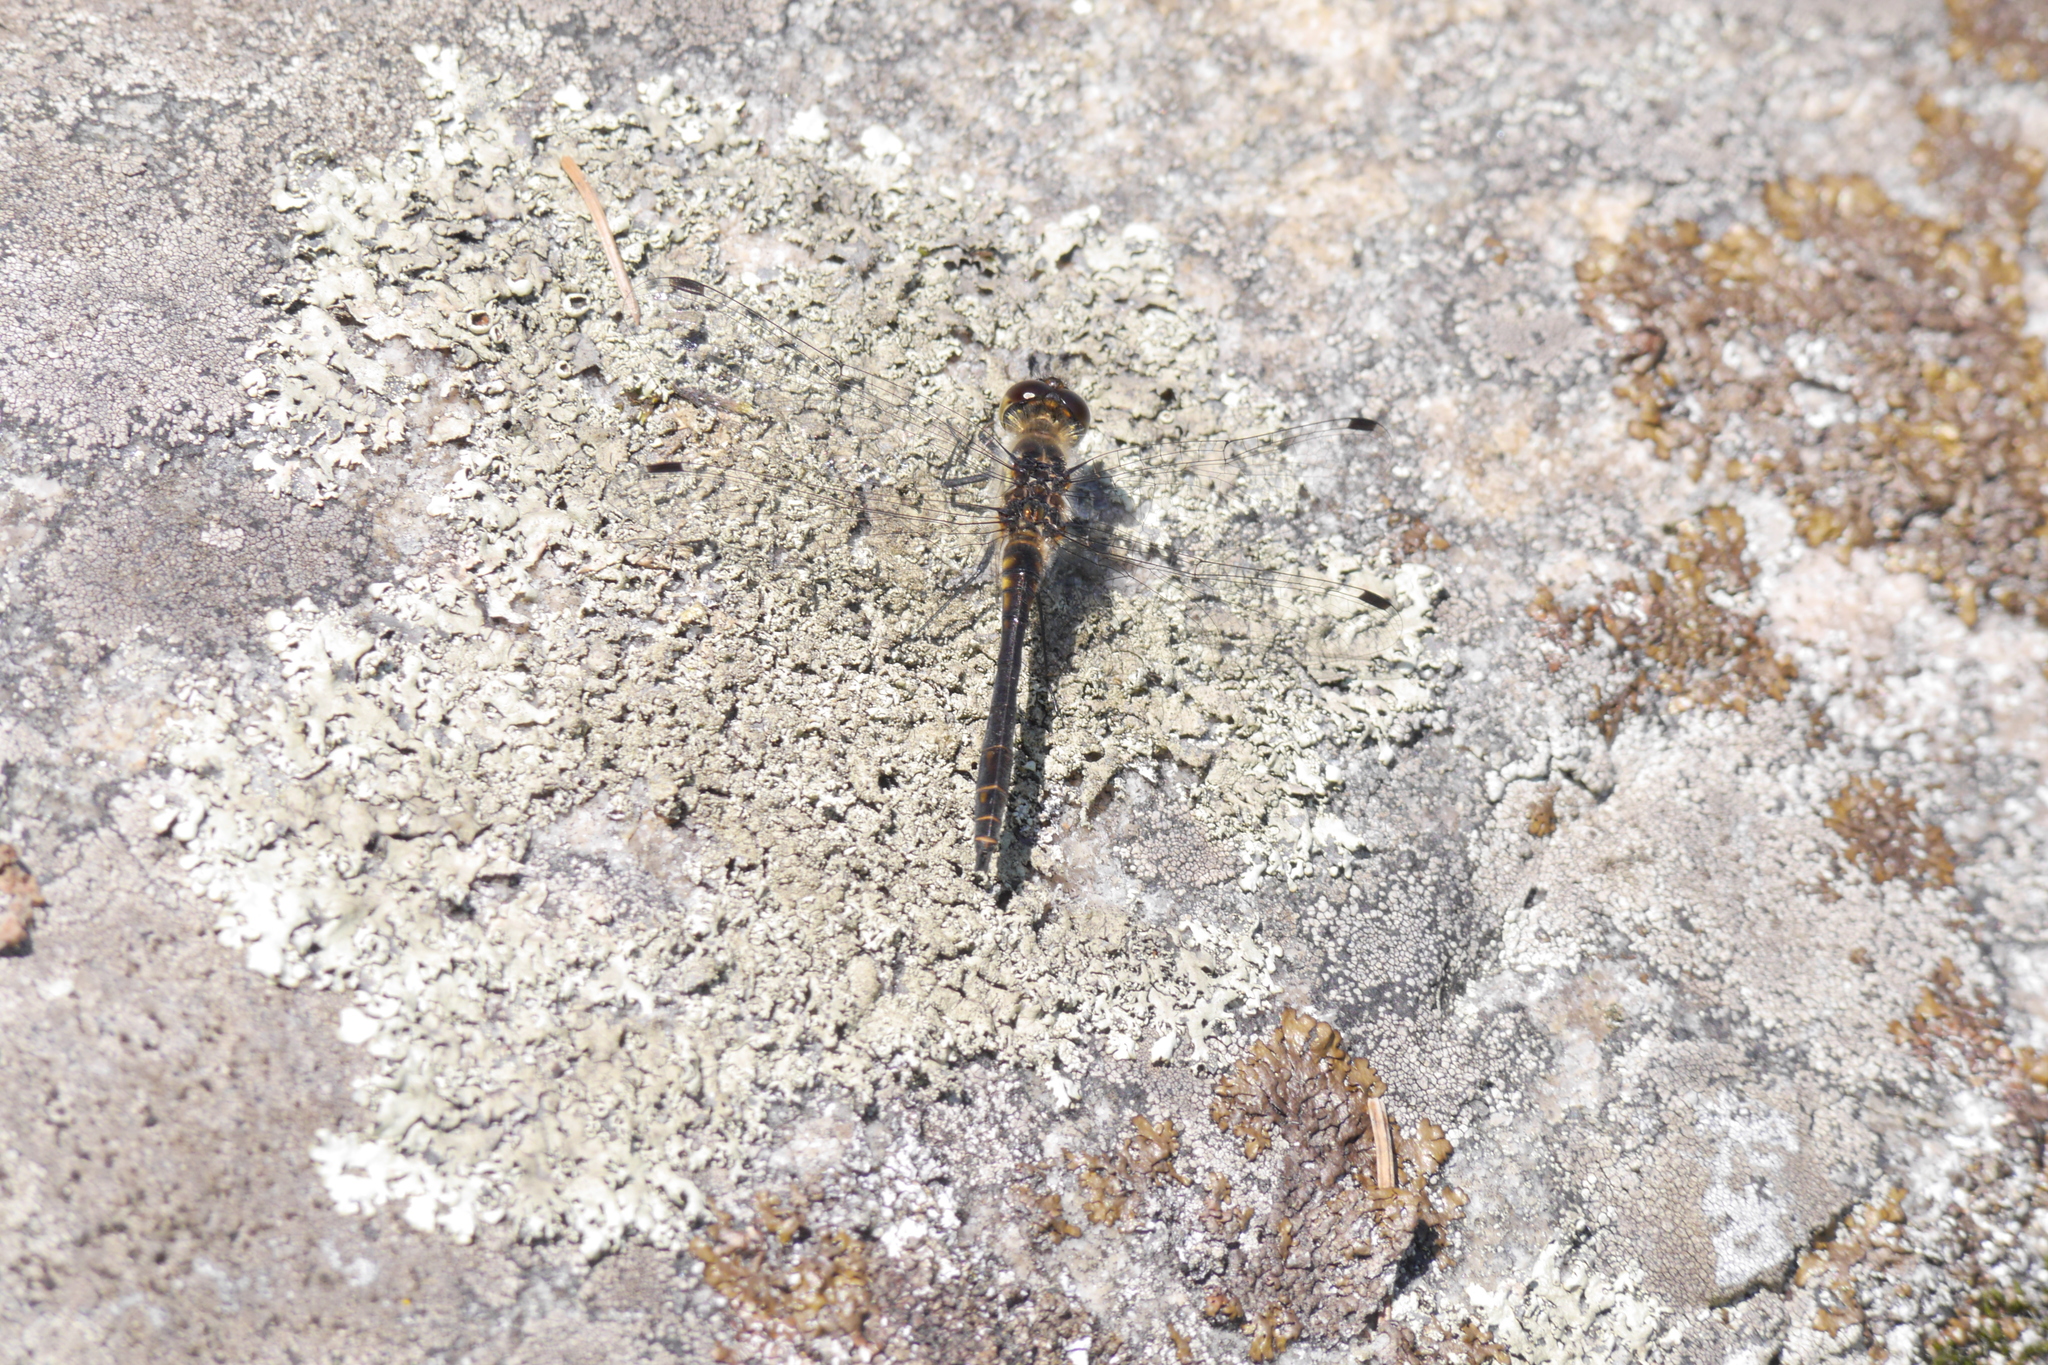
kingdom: Animalia
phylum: Arthropoda
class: Insecta
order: Odonata
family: Libellulidae
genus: Sympetrum
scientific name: Sympetrum danae
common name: Black darter
